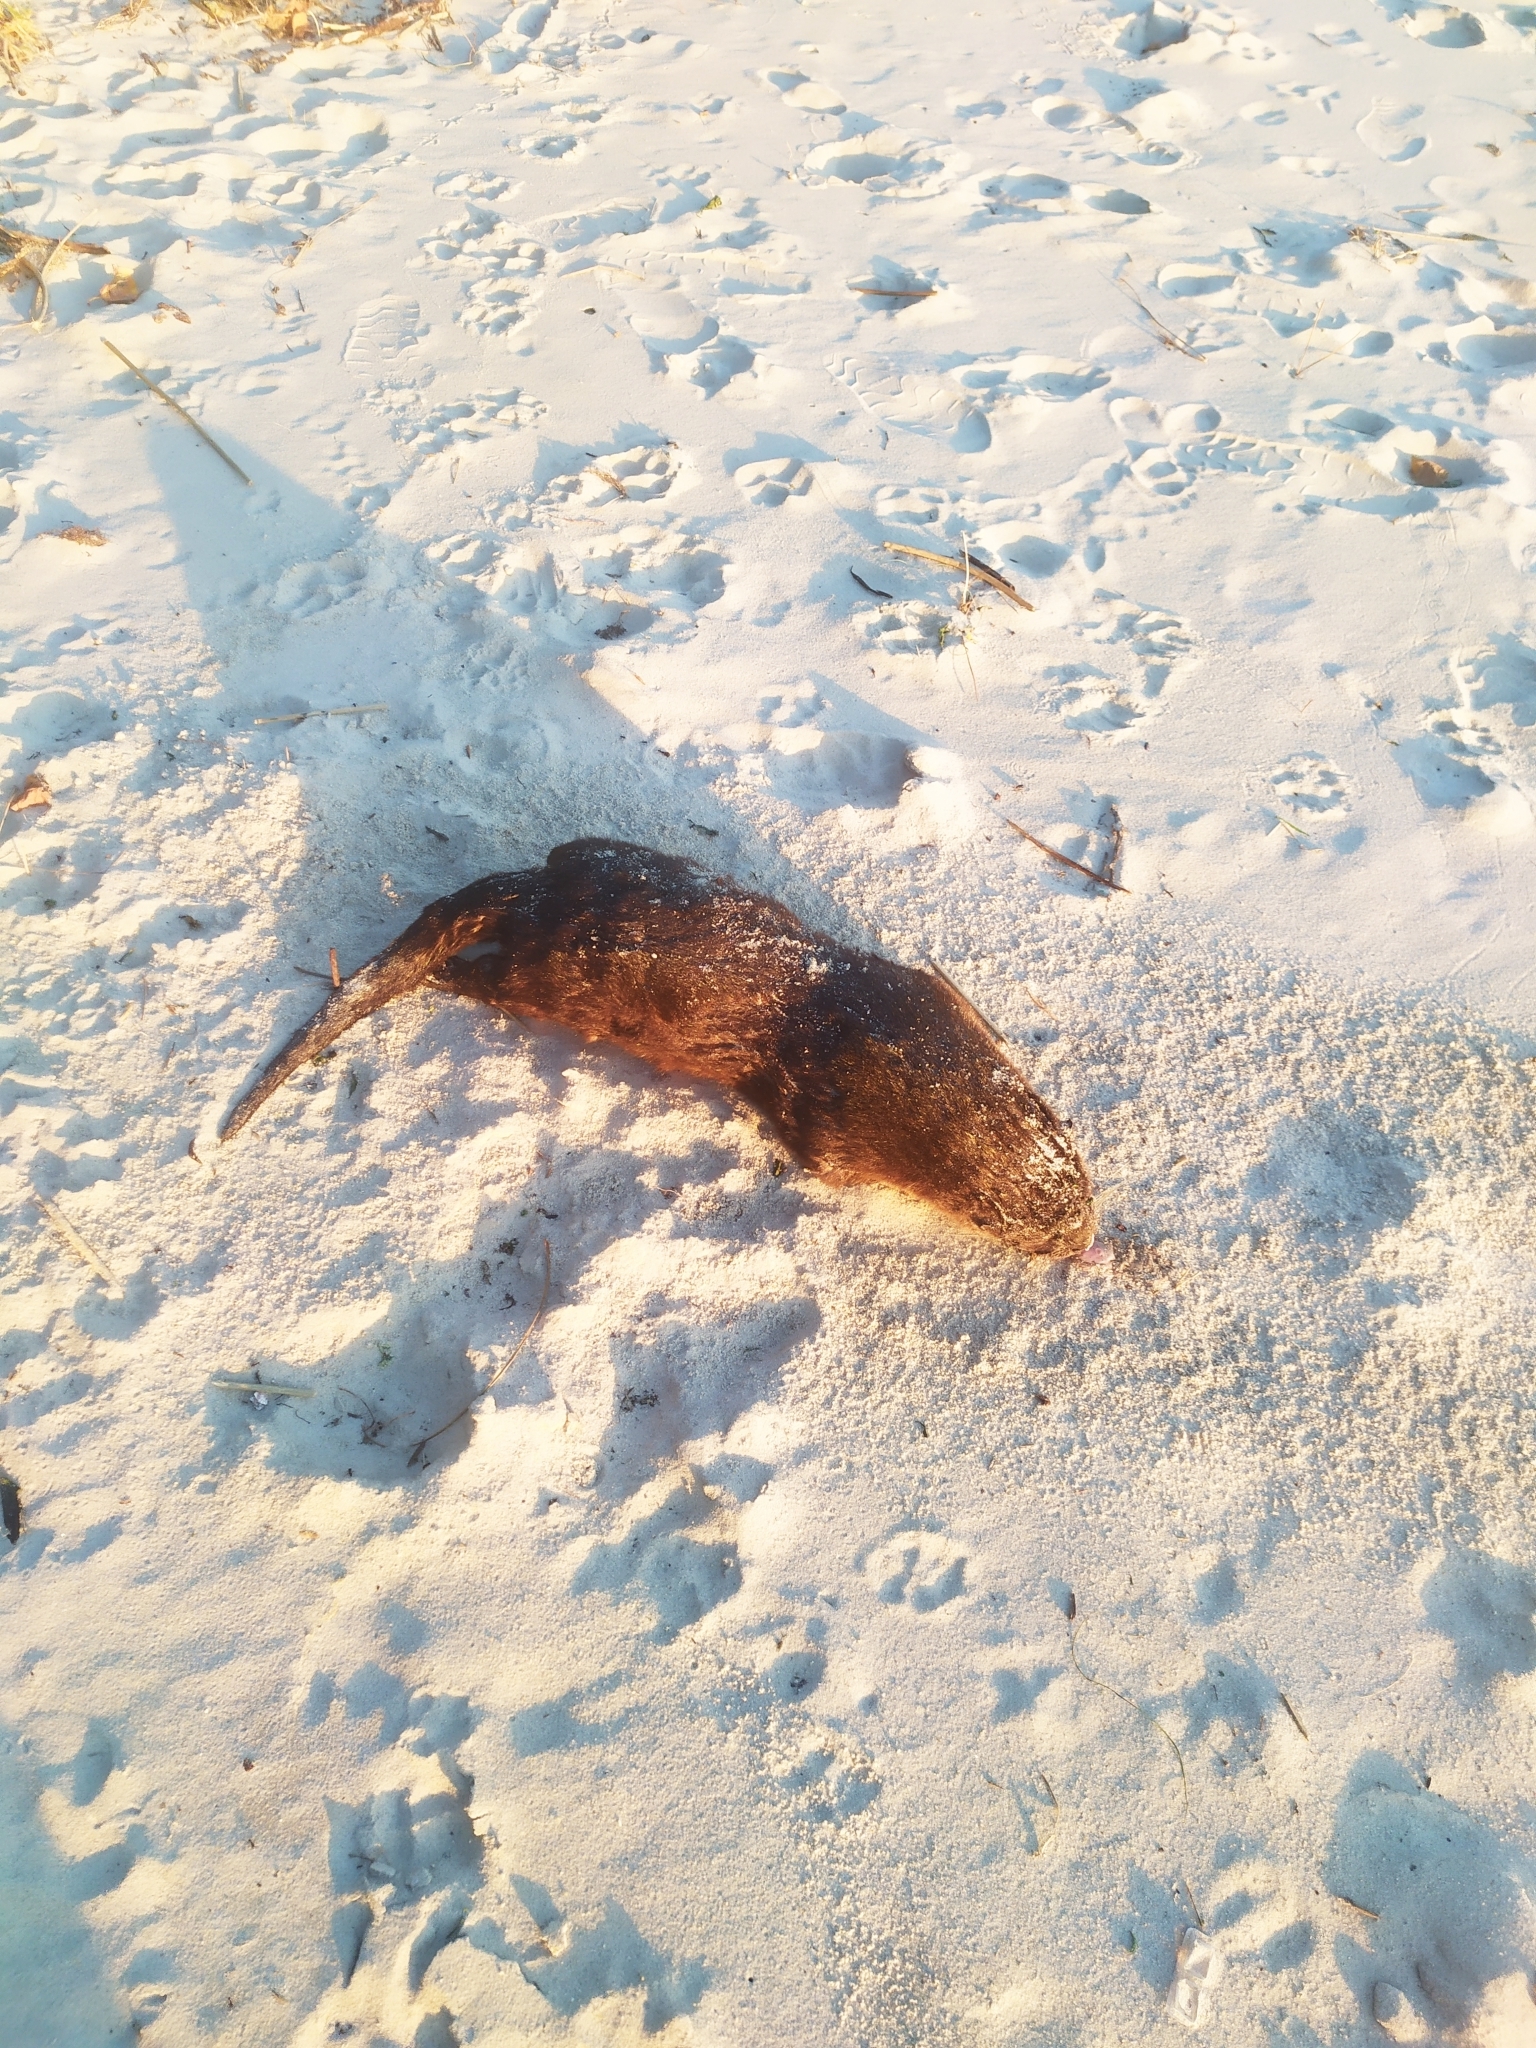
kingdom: Animalia
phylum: Chordata
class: Mammalia
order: Carnivora
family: Mustelidae
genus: Lontra
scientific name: Lontra longicaudis
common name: Neotropical otter
